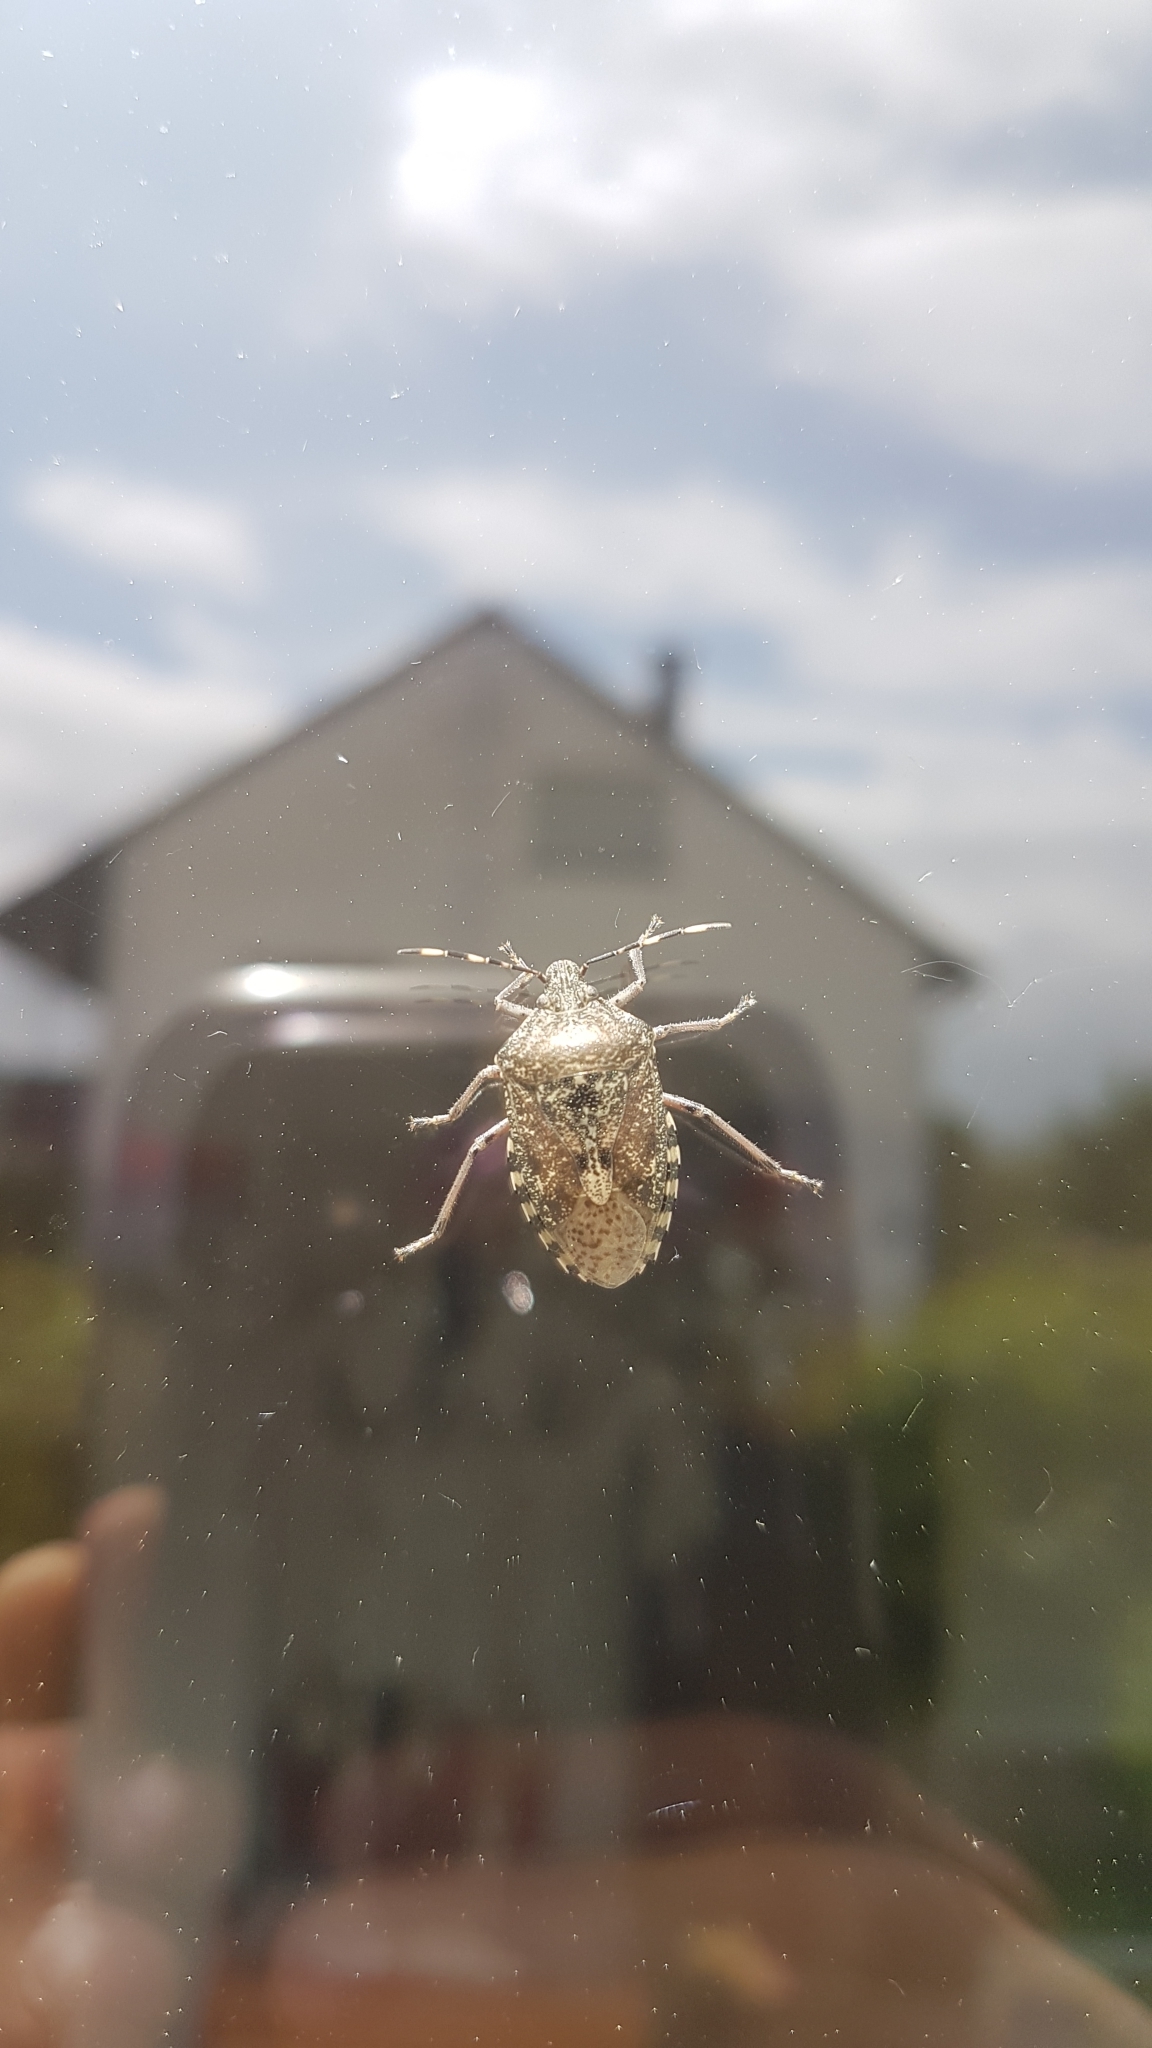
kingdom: Animalia
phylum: Arthropoda
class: Insecta
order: Hemiptera
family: Pentatomidae
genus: Rhaphigaster
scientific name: Rhaphigaster nebulosa
